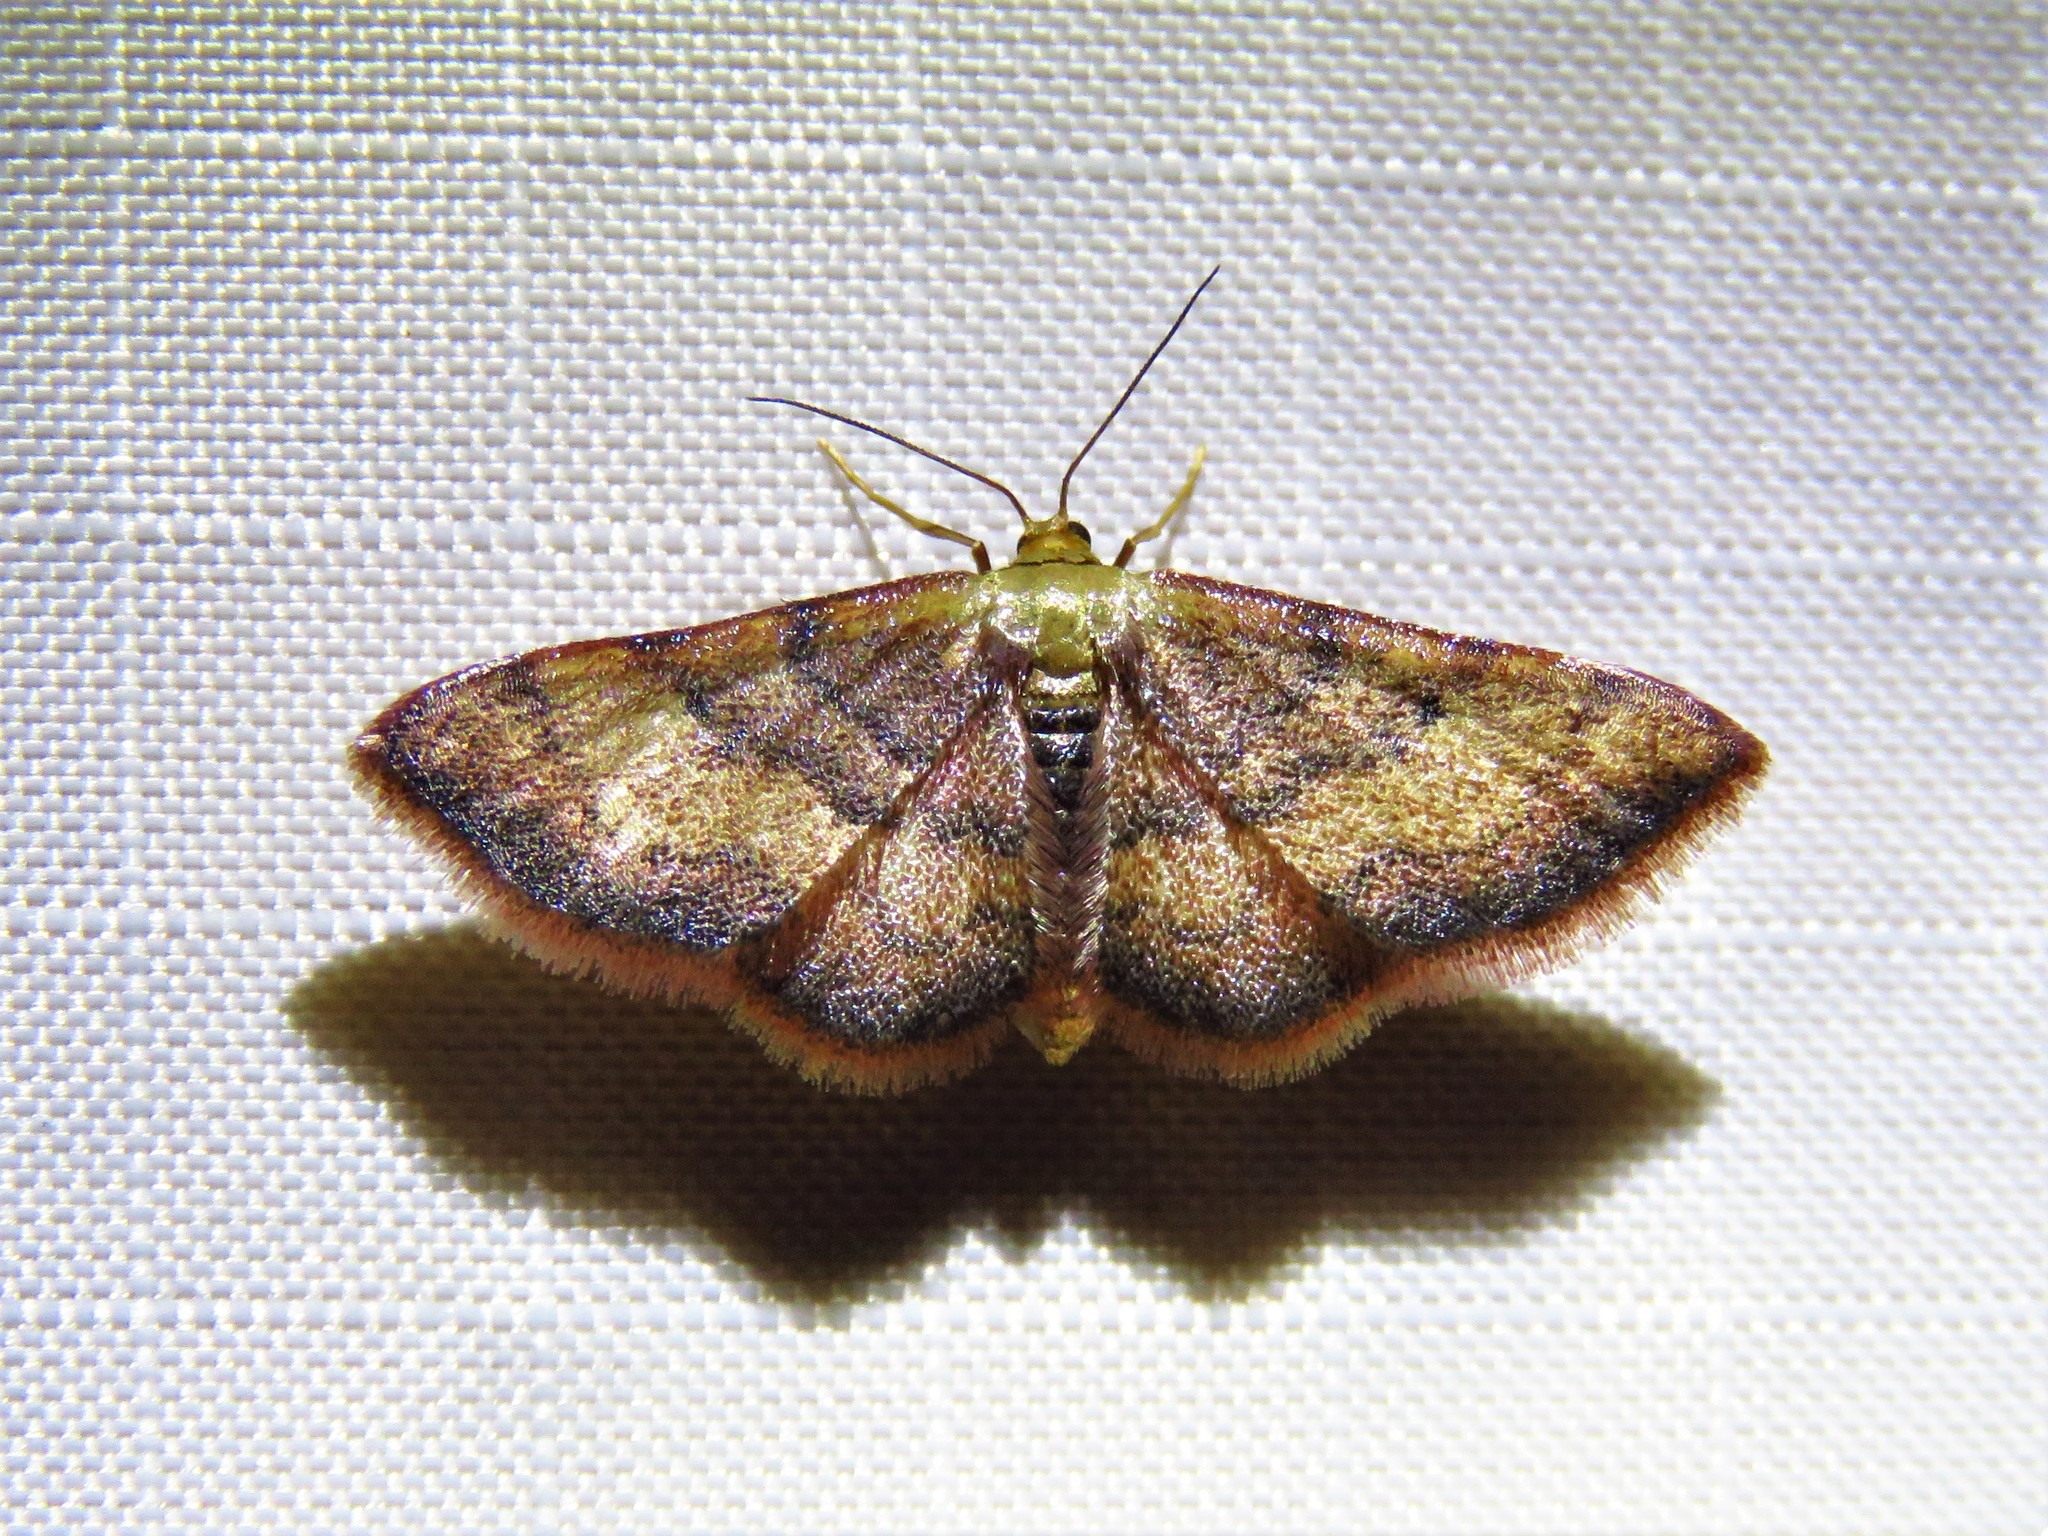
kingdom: Animalia
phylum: Arthropoda
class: Insecta
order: Lepidoptera
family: Geometridae
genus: Idaea
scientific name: Idaea demissaria
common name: Red-bordered wave
